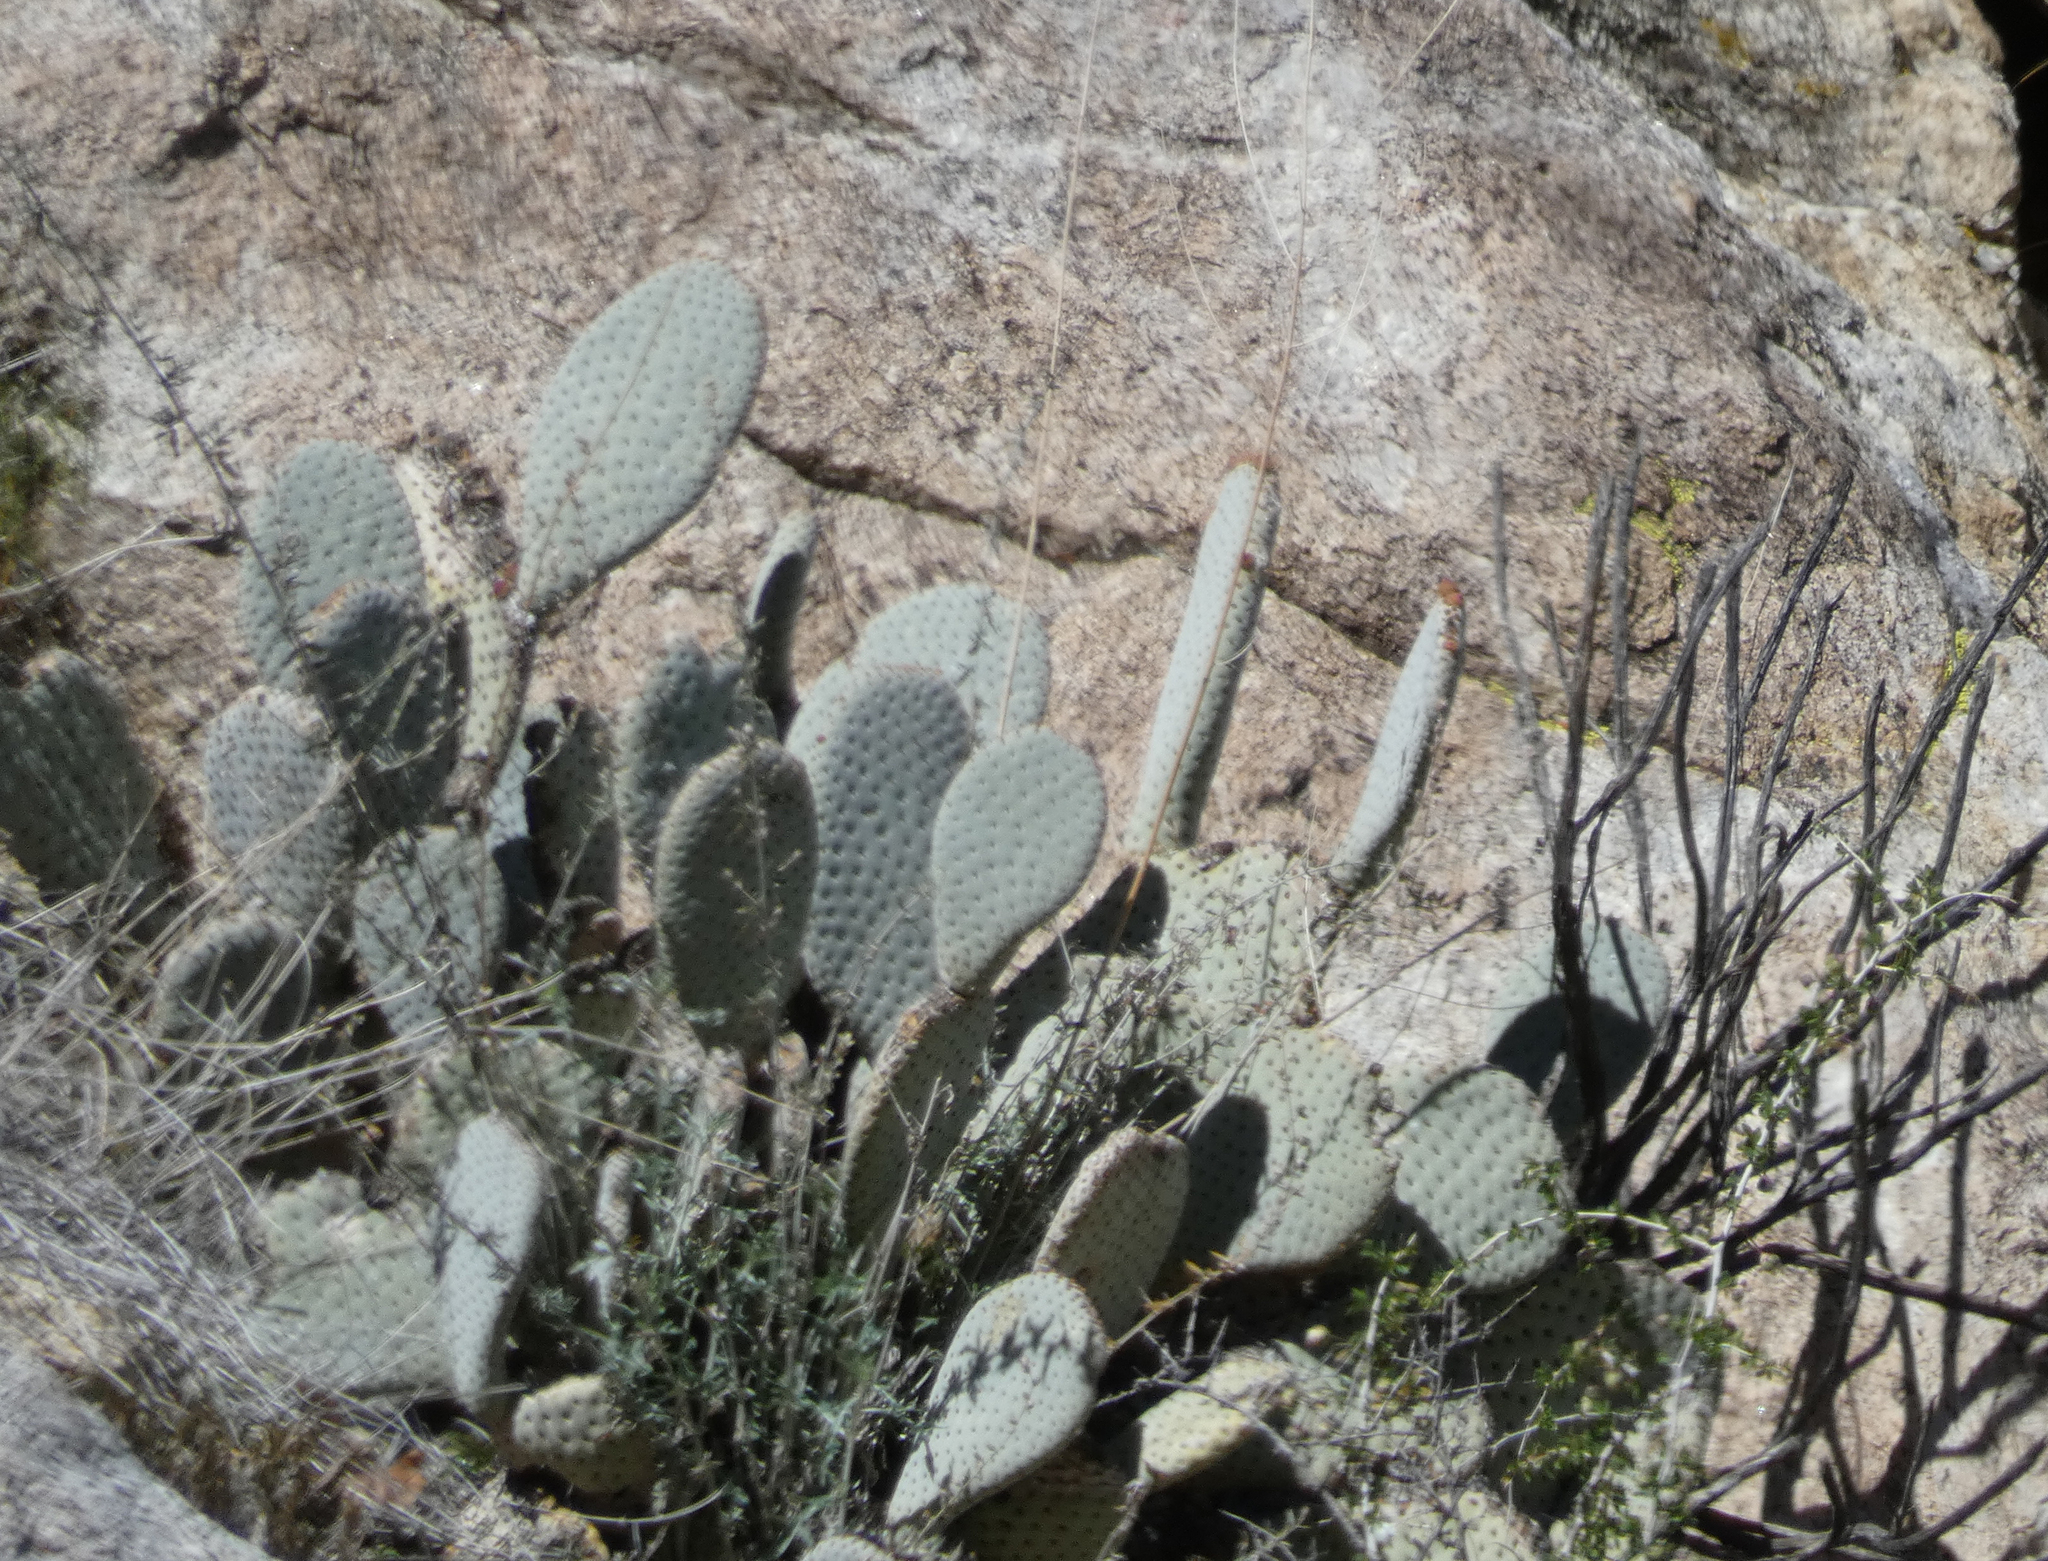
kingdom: Plantae
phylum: Tracheophyta
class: Magnoliopsida
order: Caryophyllales
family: Cactaceae
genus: Opuntia
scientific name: Opuntia basilaris
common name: Beavertail prickly-pear
